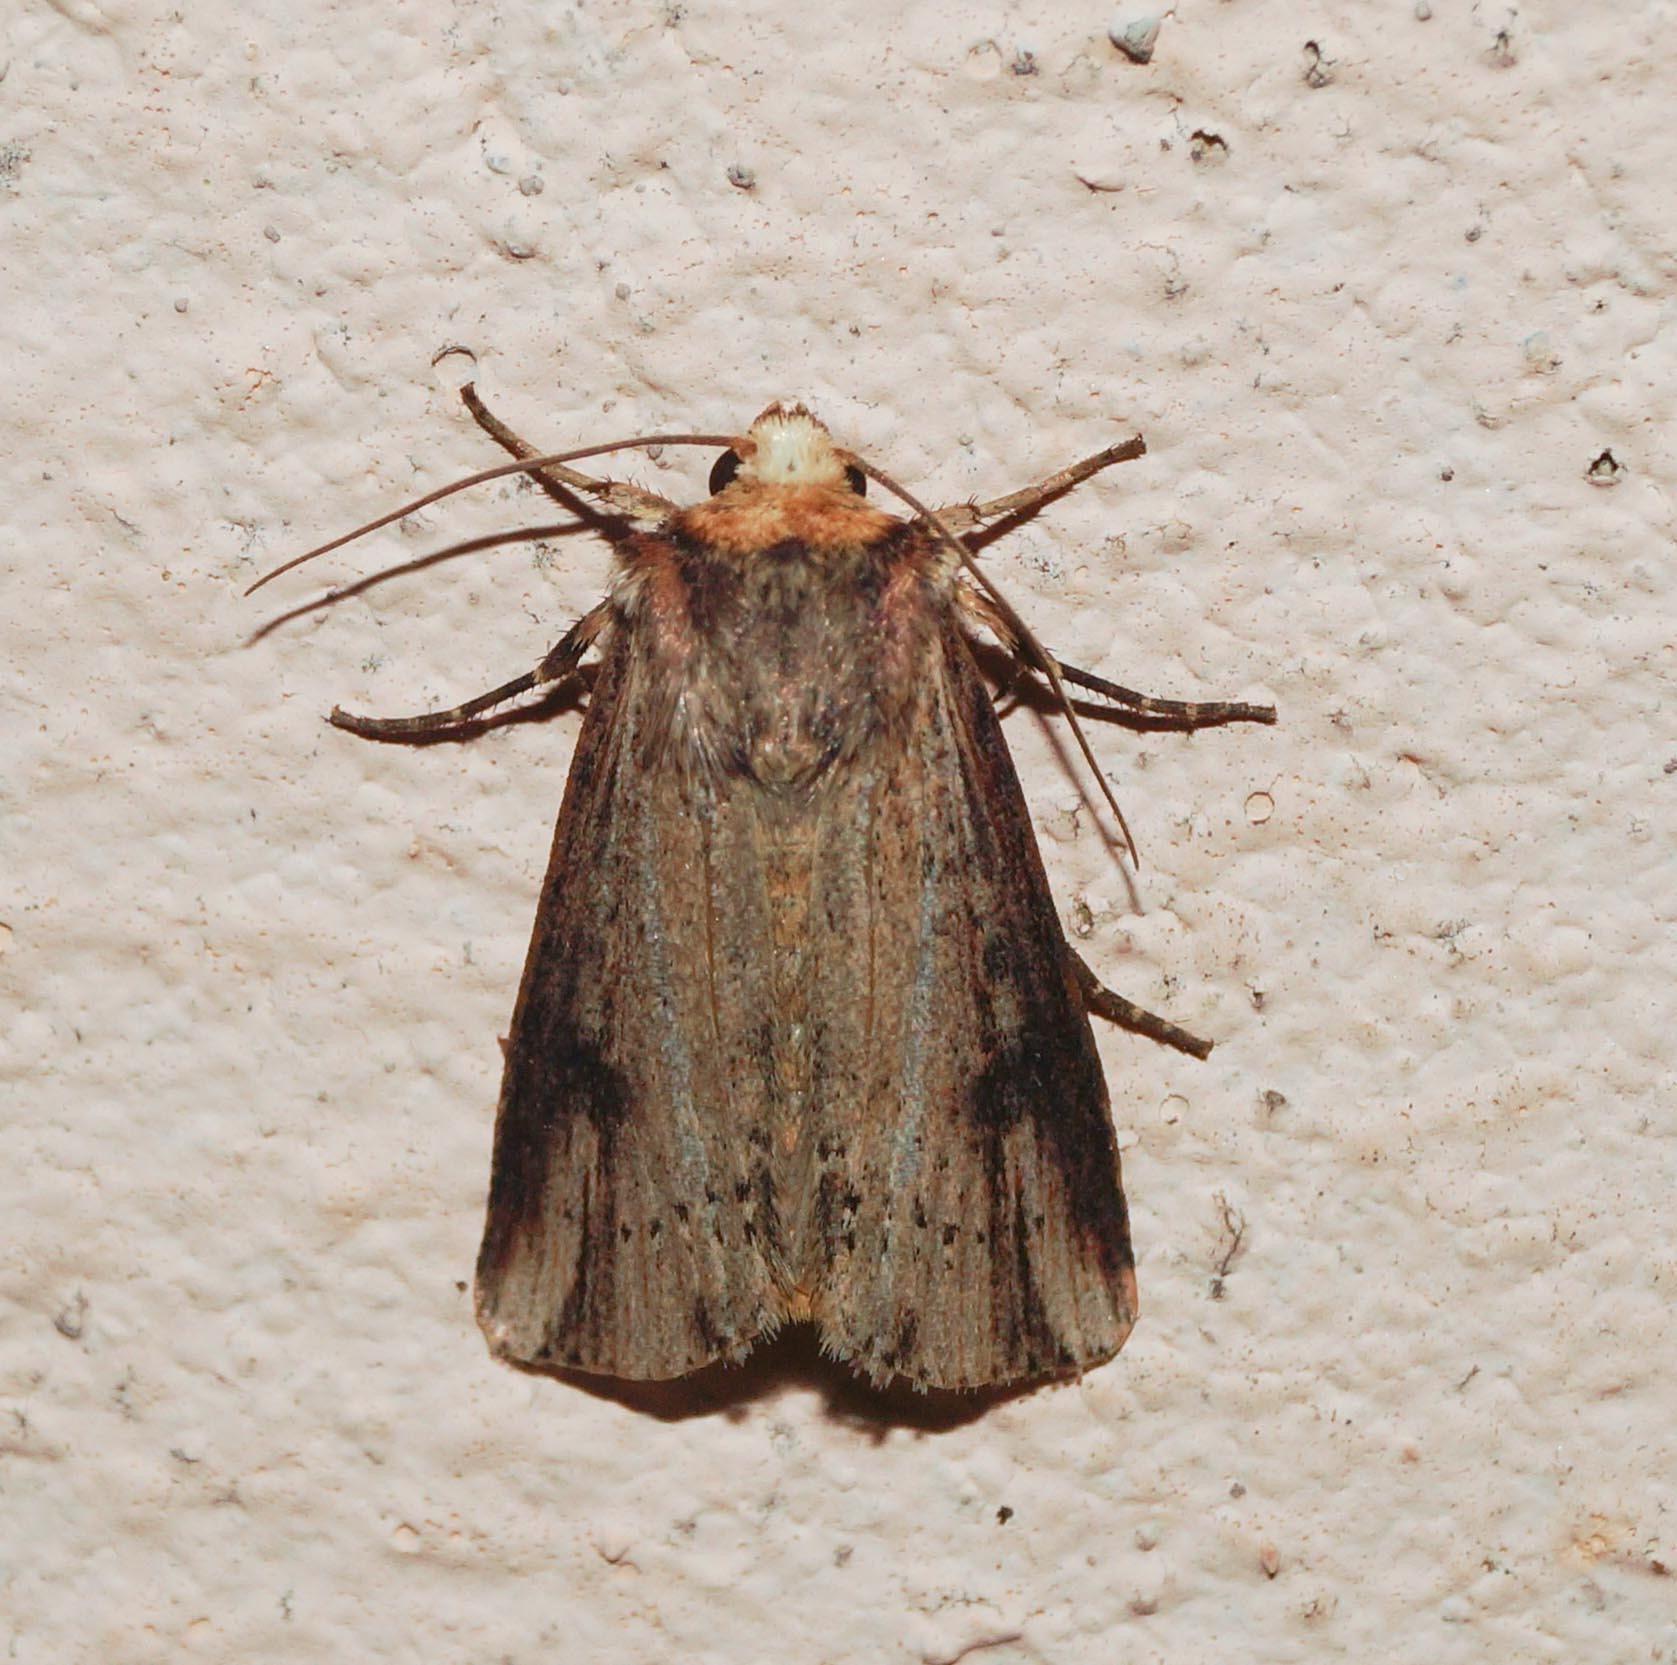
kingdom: Animalia
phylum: Arthropoda
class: Insecta
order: Lepidoptera
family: Noctuidae
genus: Axylia
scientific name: Axylia putris
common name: Flame
